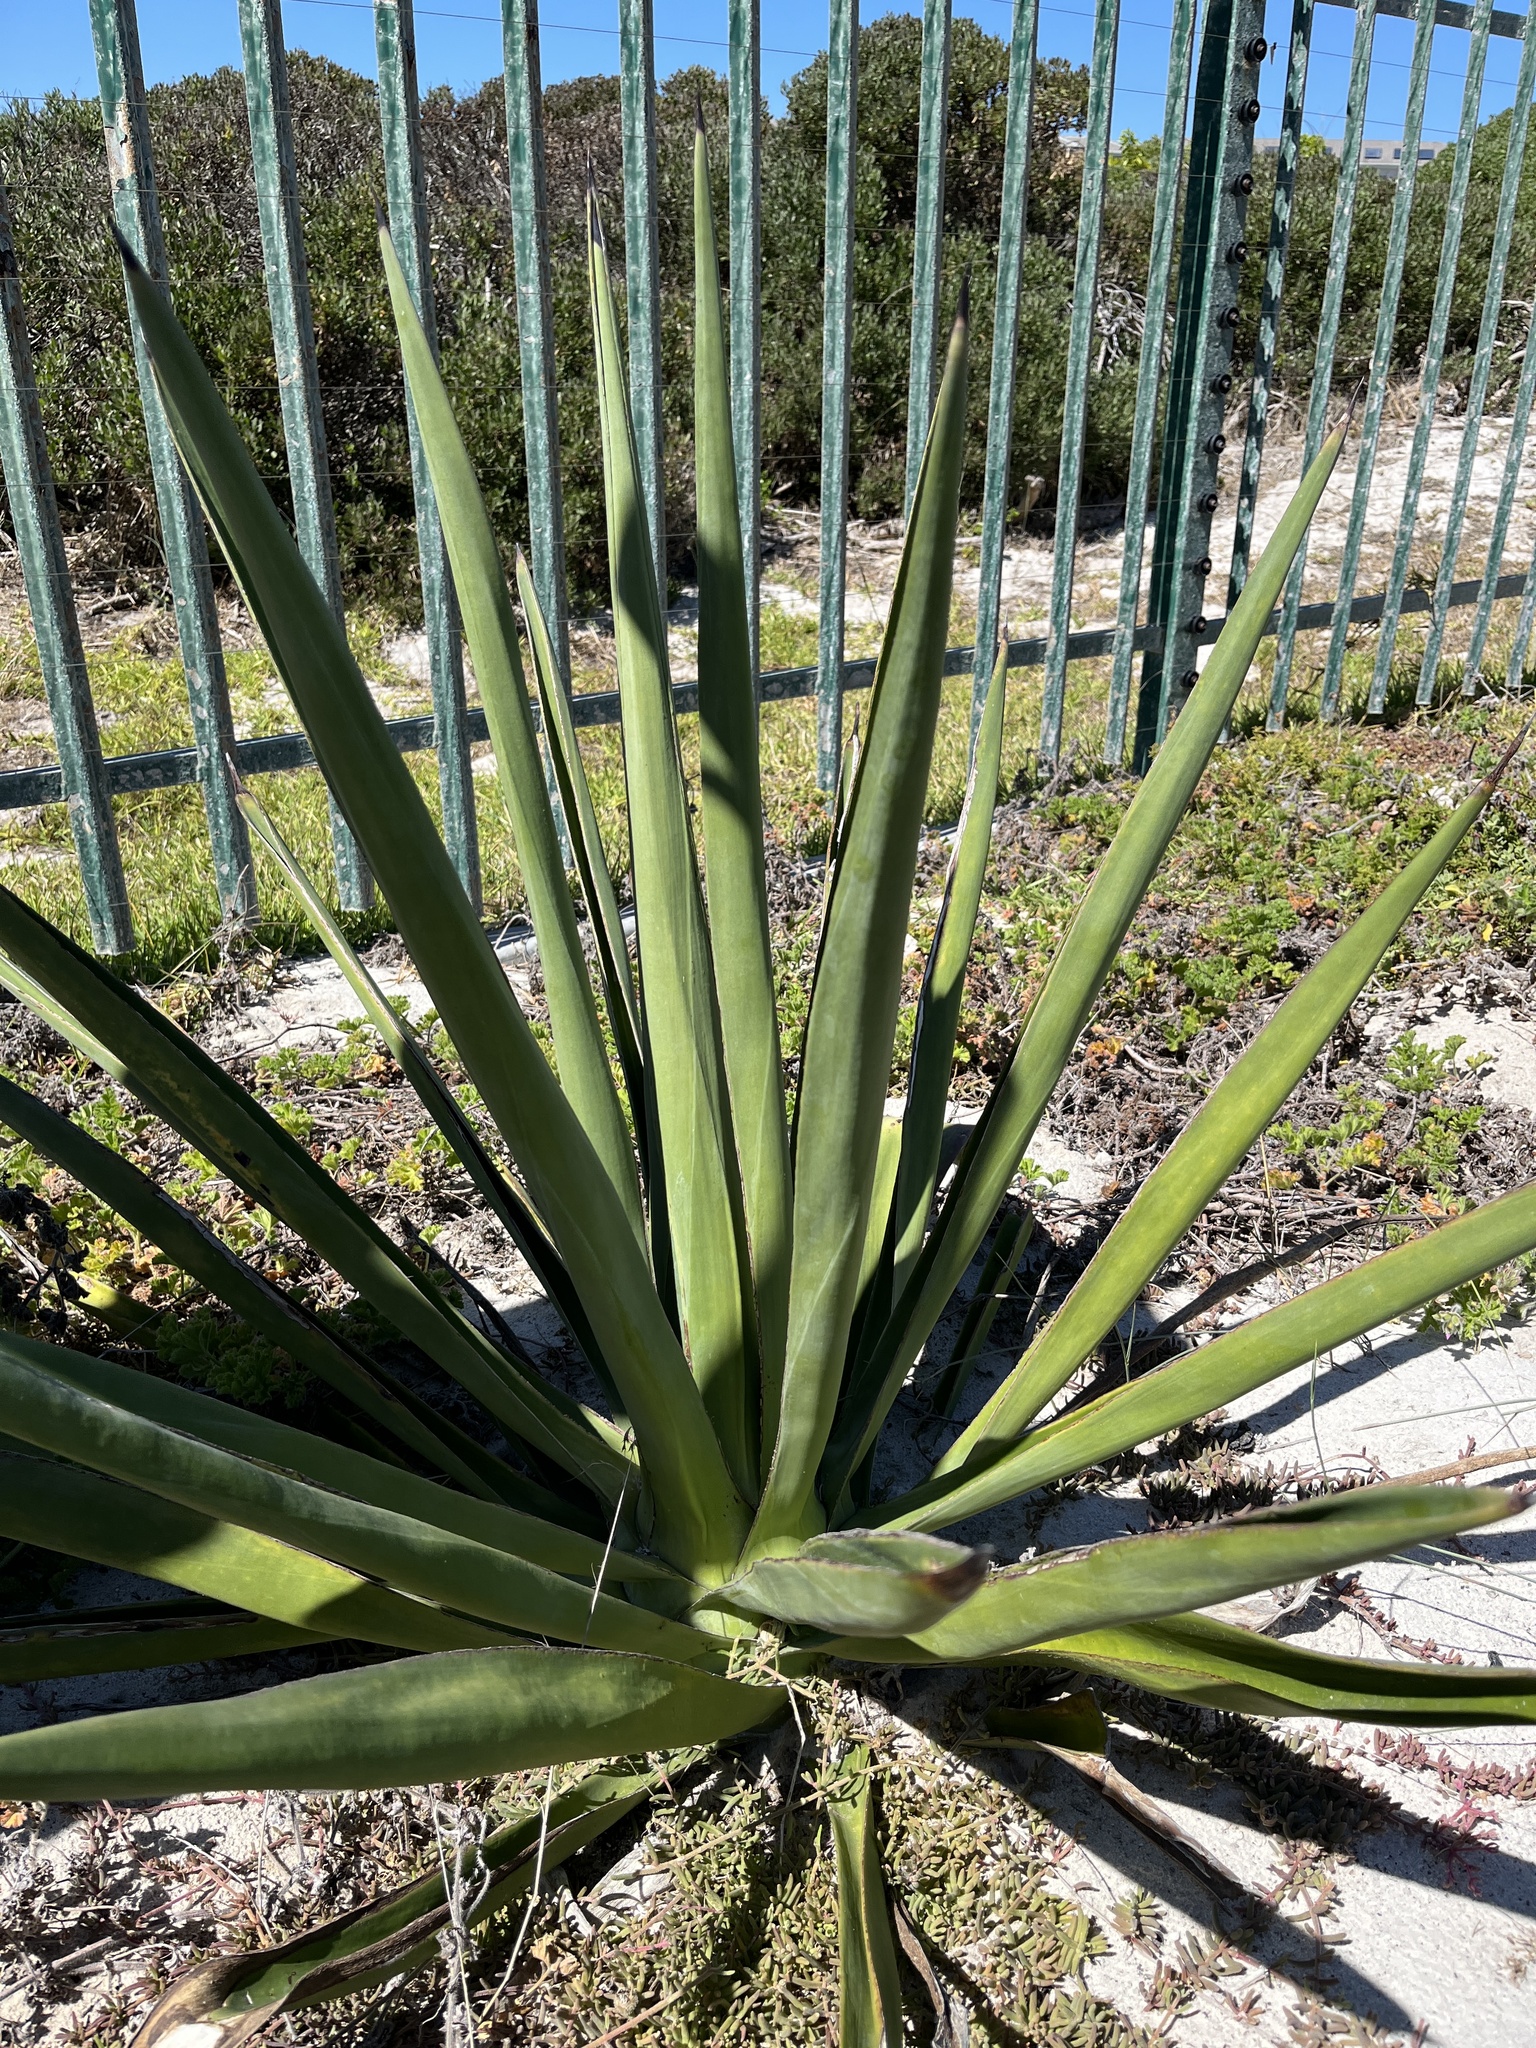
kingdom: Plantae
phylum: Tracheophyta
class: Liliopsida
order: Asparagales
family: Asparagaceae
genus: Agave
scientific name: Agave sisalana
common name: Sisal hemp
